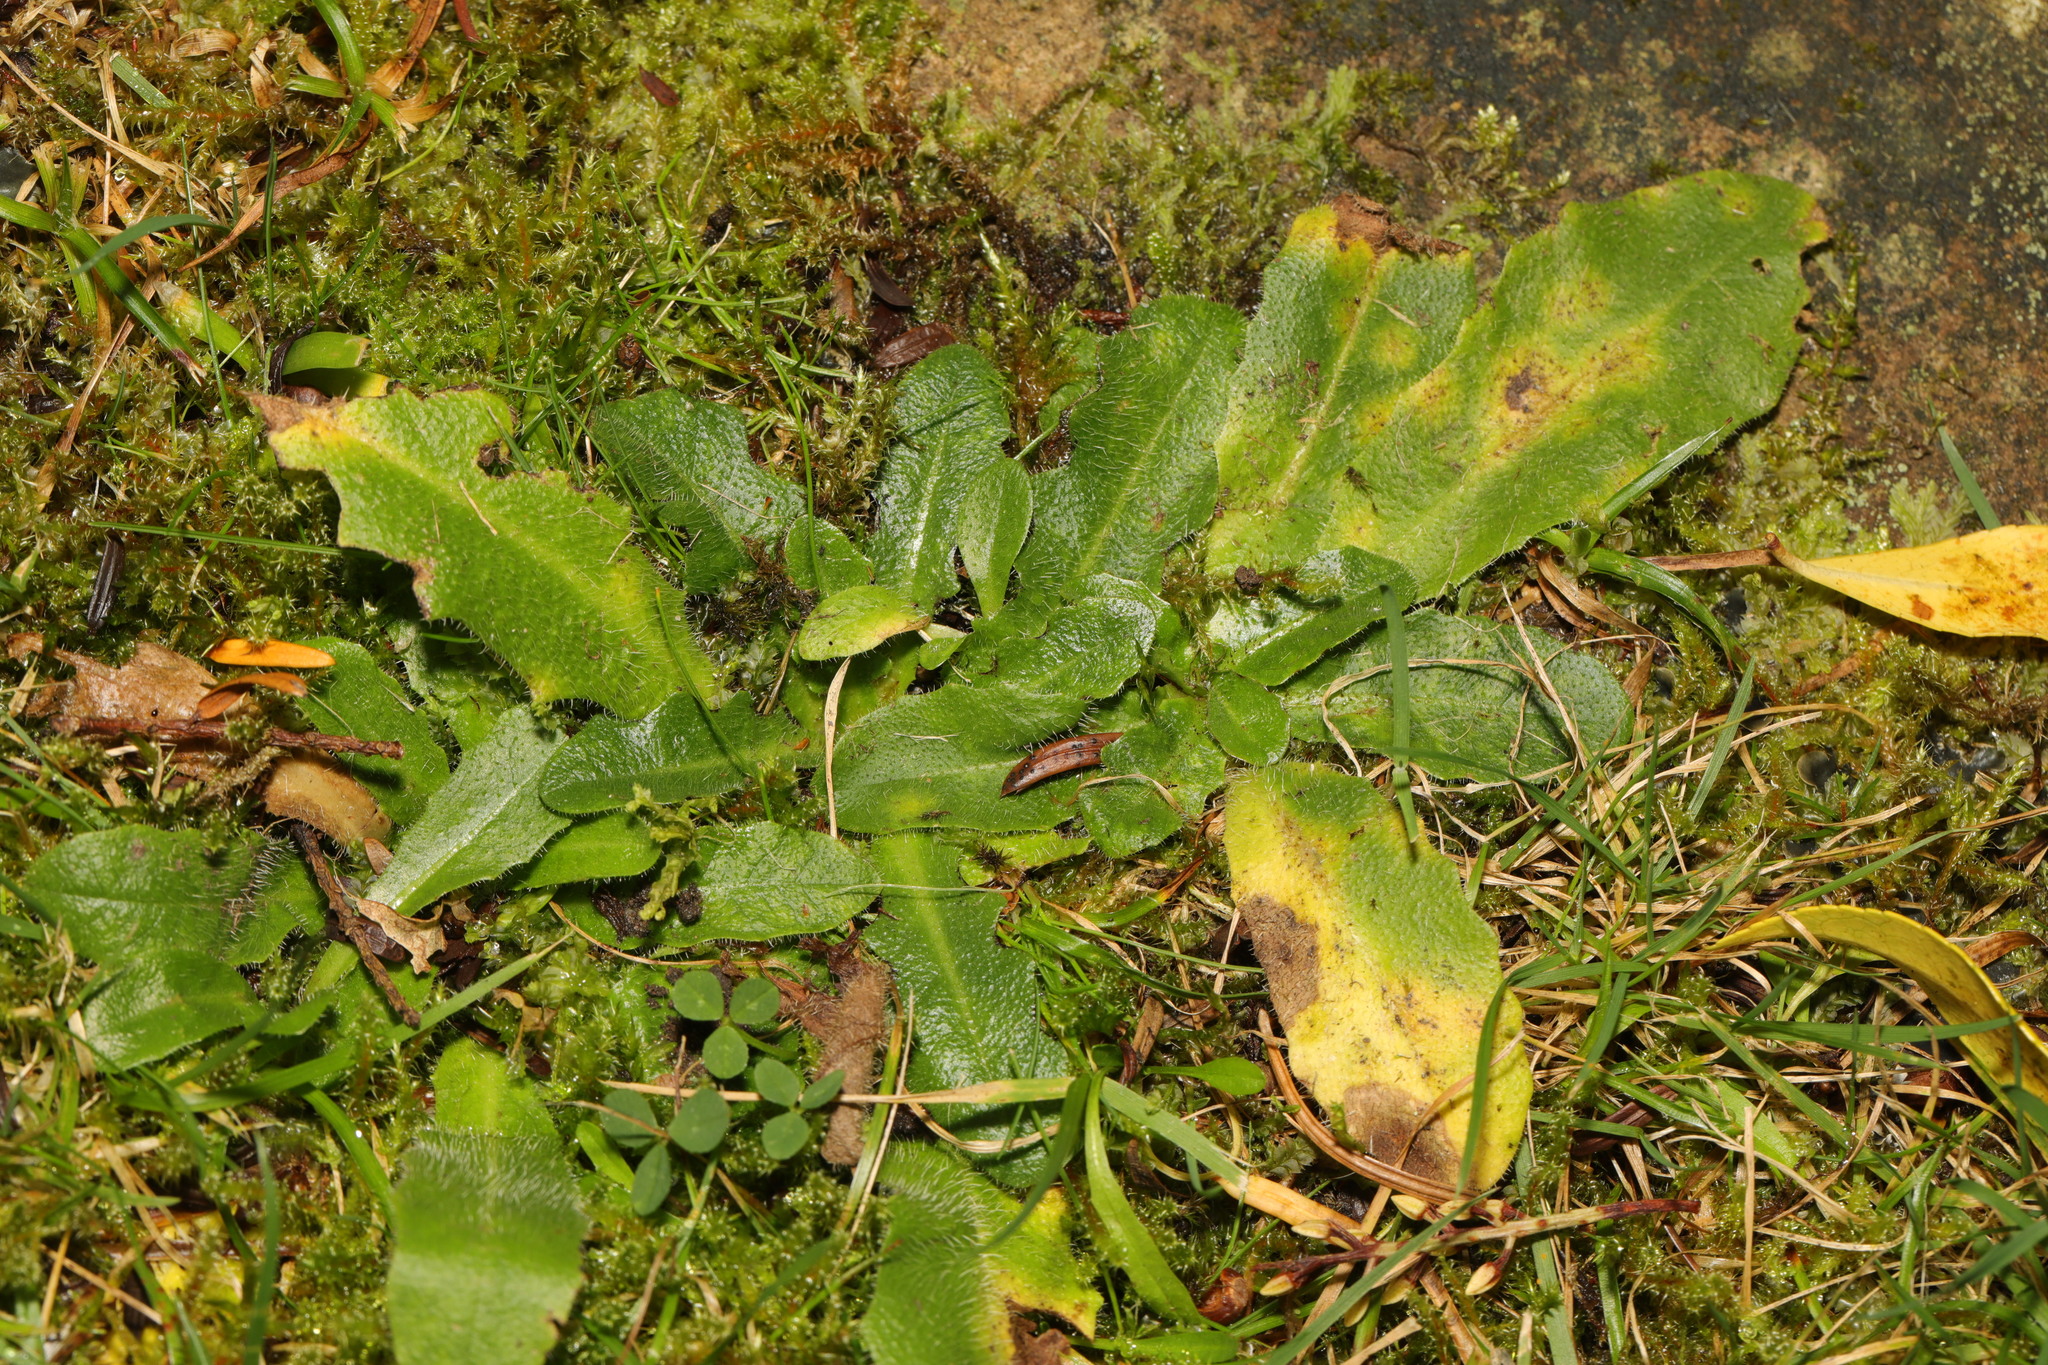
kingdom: Plantae
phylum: Tracheophyta
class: Magnoliopsida
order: Asterales
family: Asteraceae
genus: Hypochaeris
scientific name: Hypochaeris radicata
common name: Flatweed
